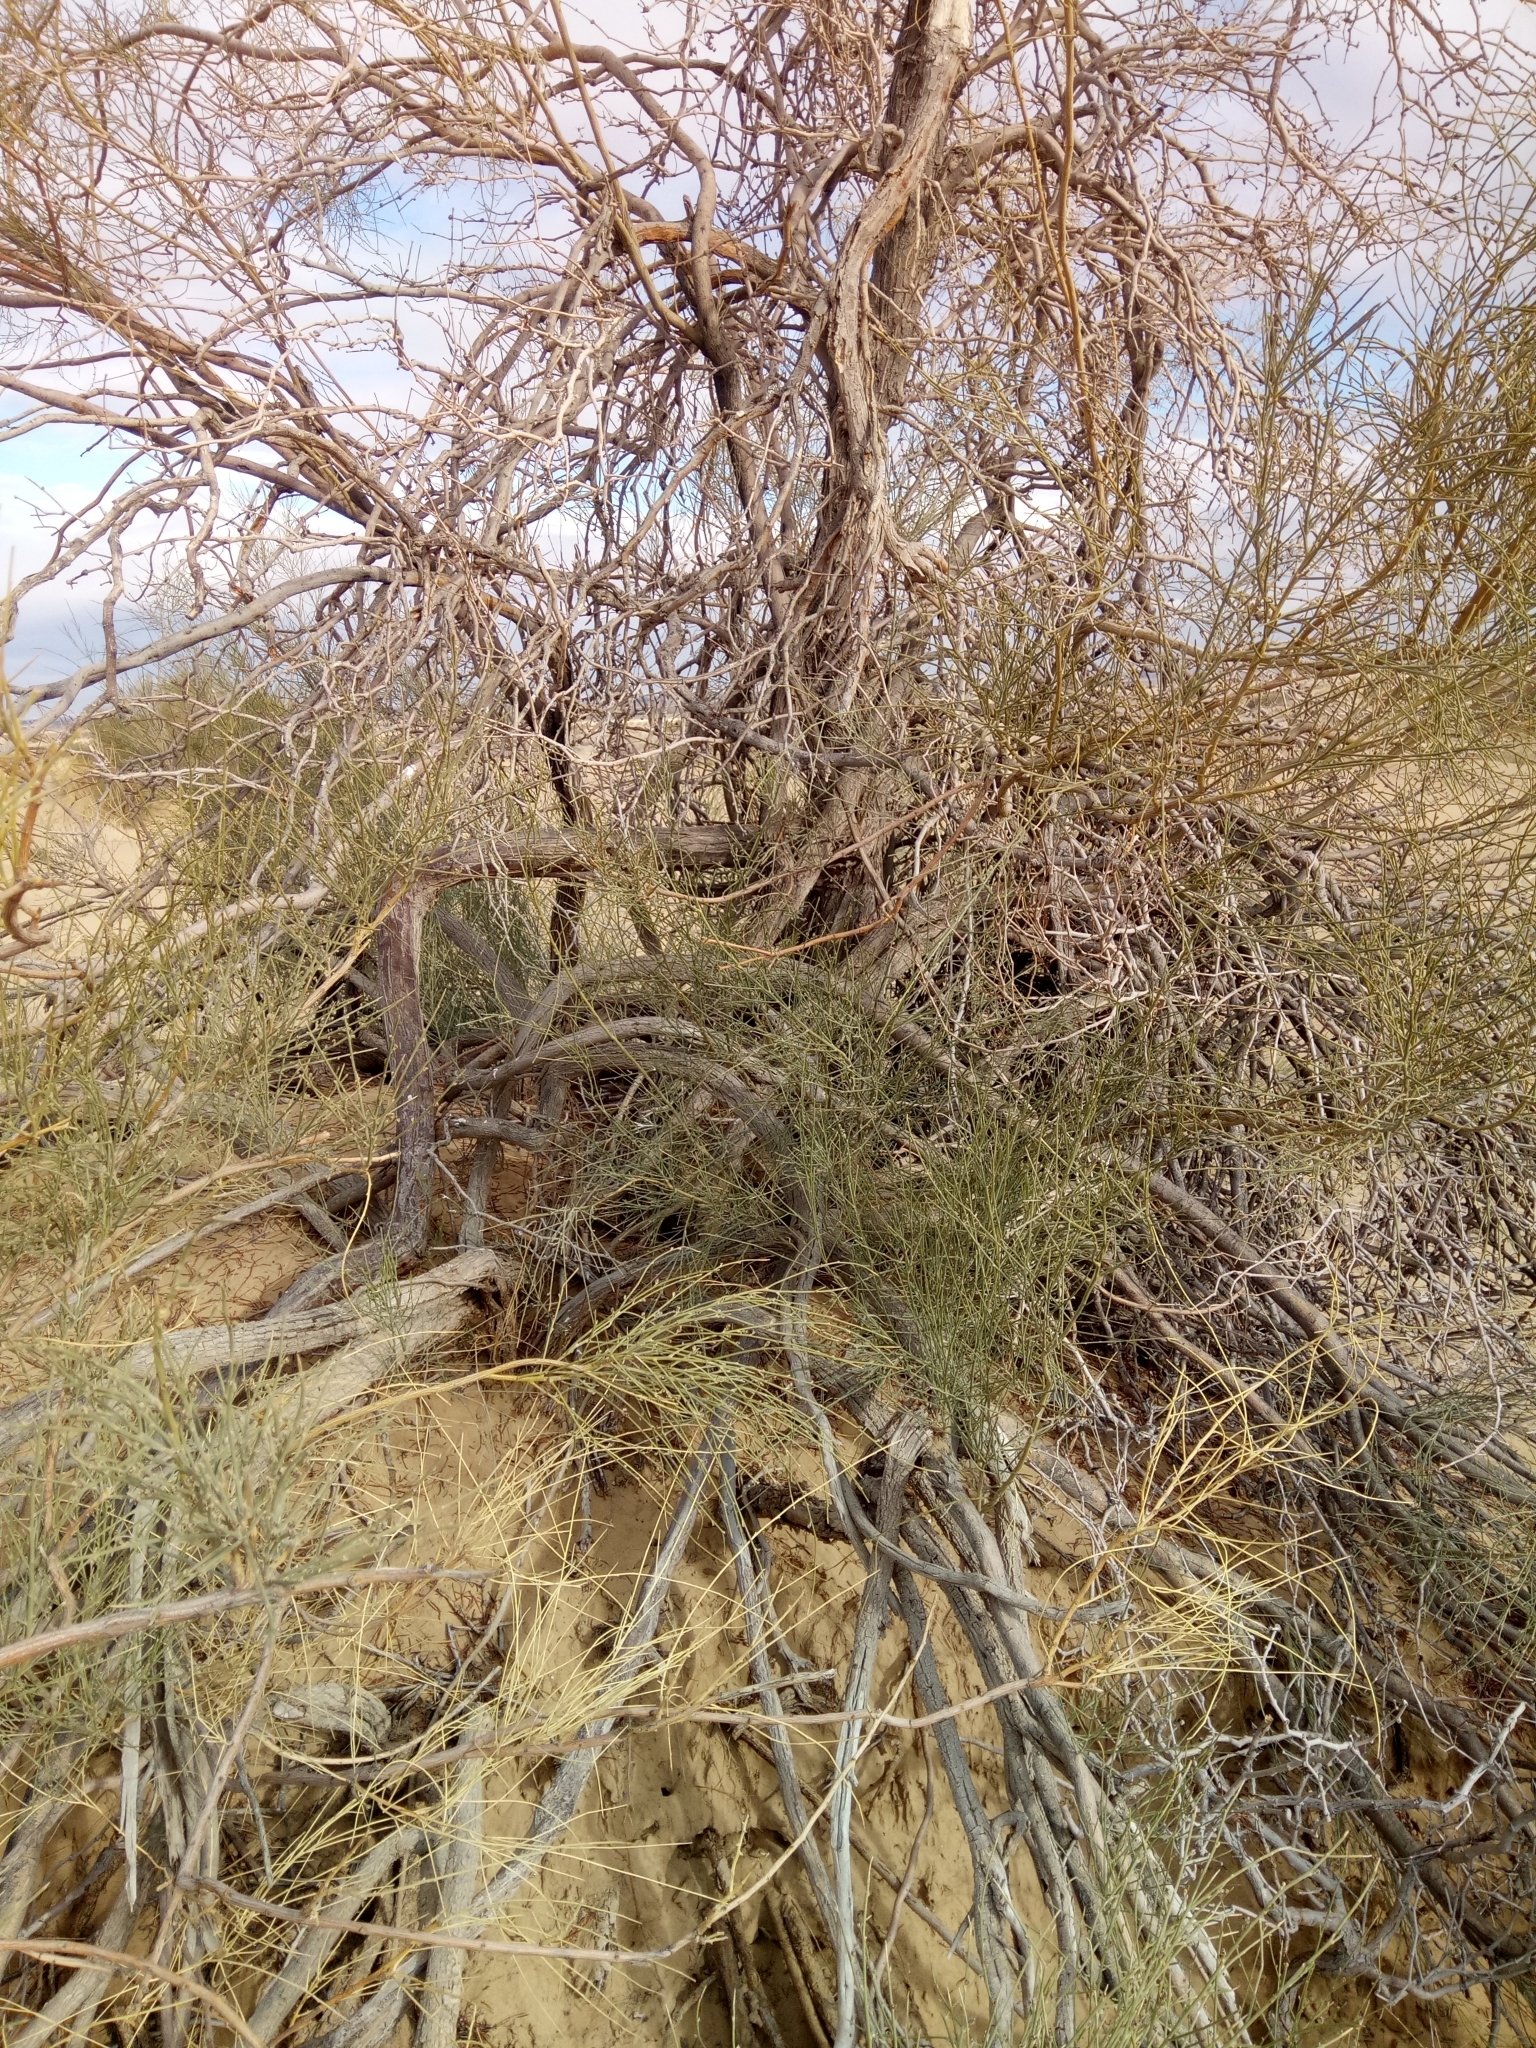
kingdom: Plantae
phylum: Tracheophyta
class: Magnoliopsida
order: Fabales
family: Fabaceae
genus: Retama
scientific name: Retama raetam
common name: Retem
